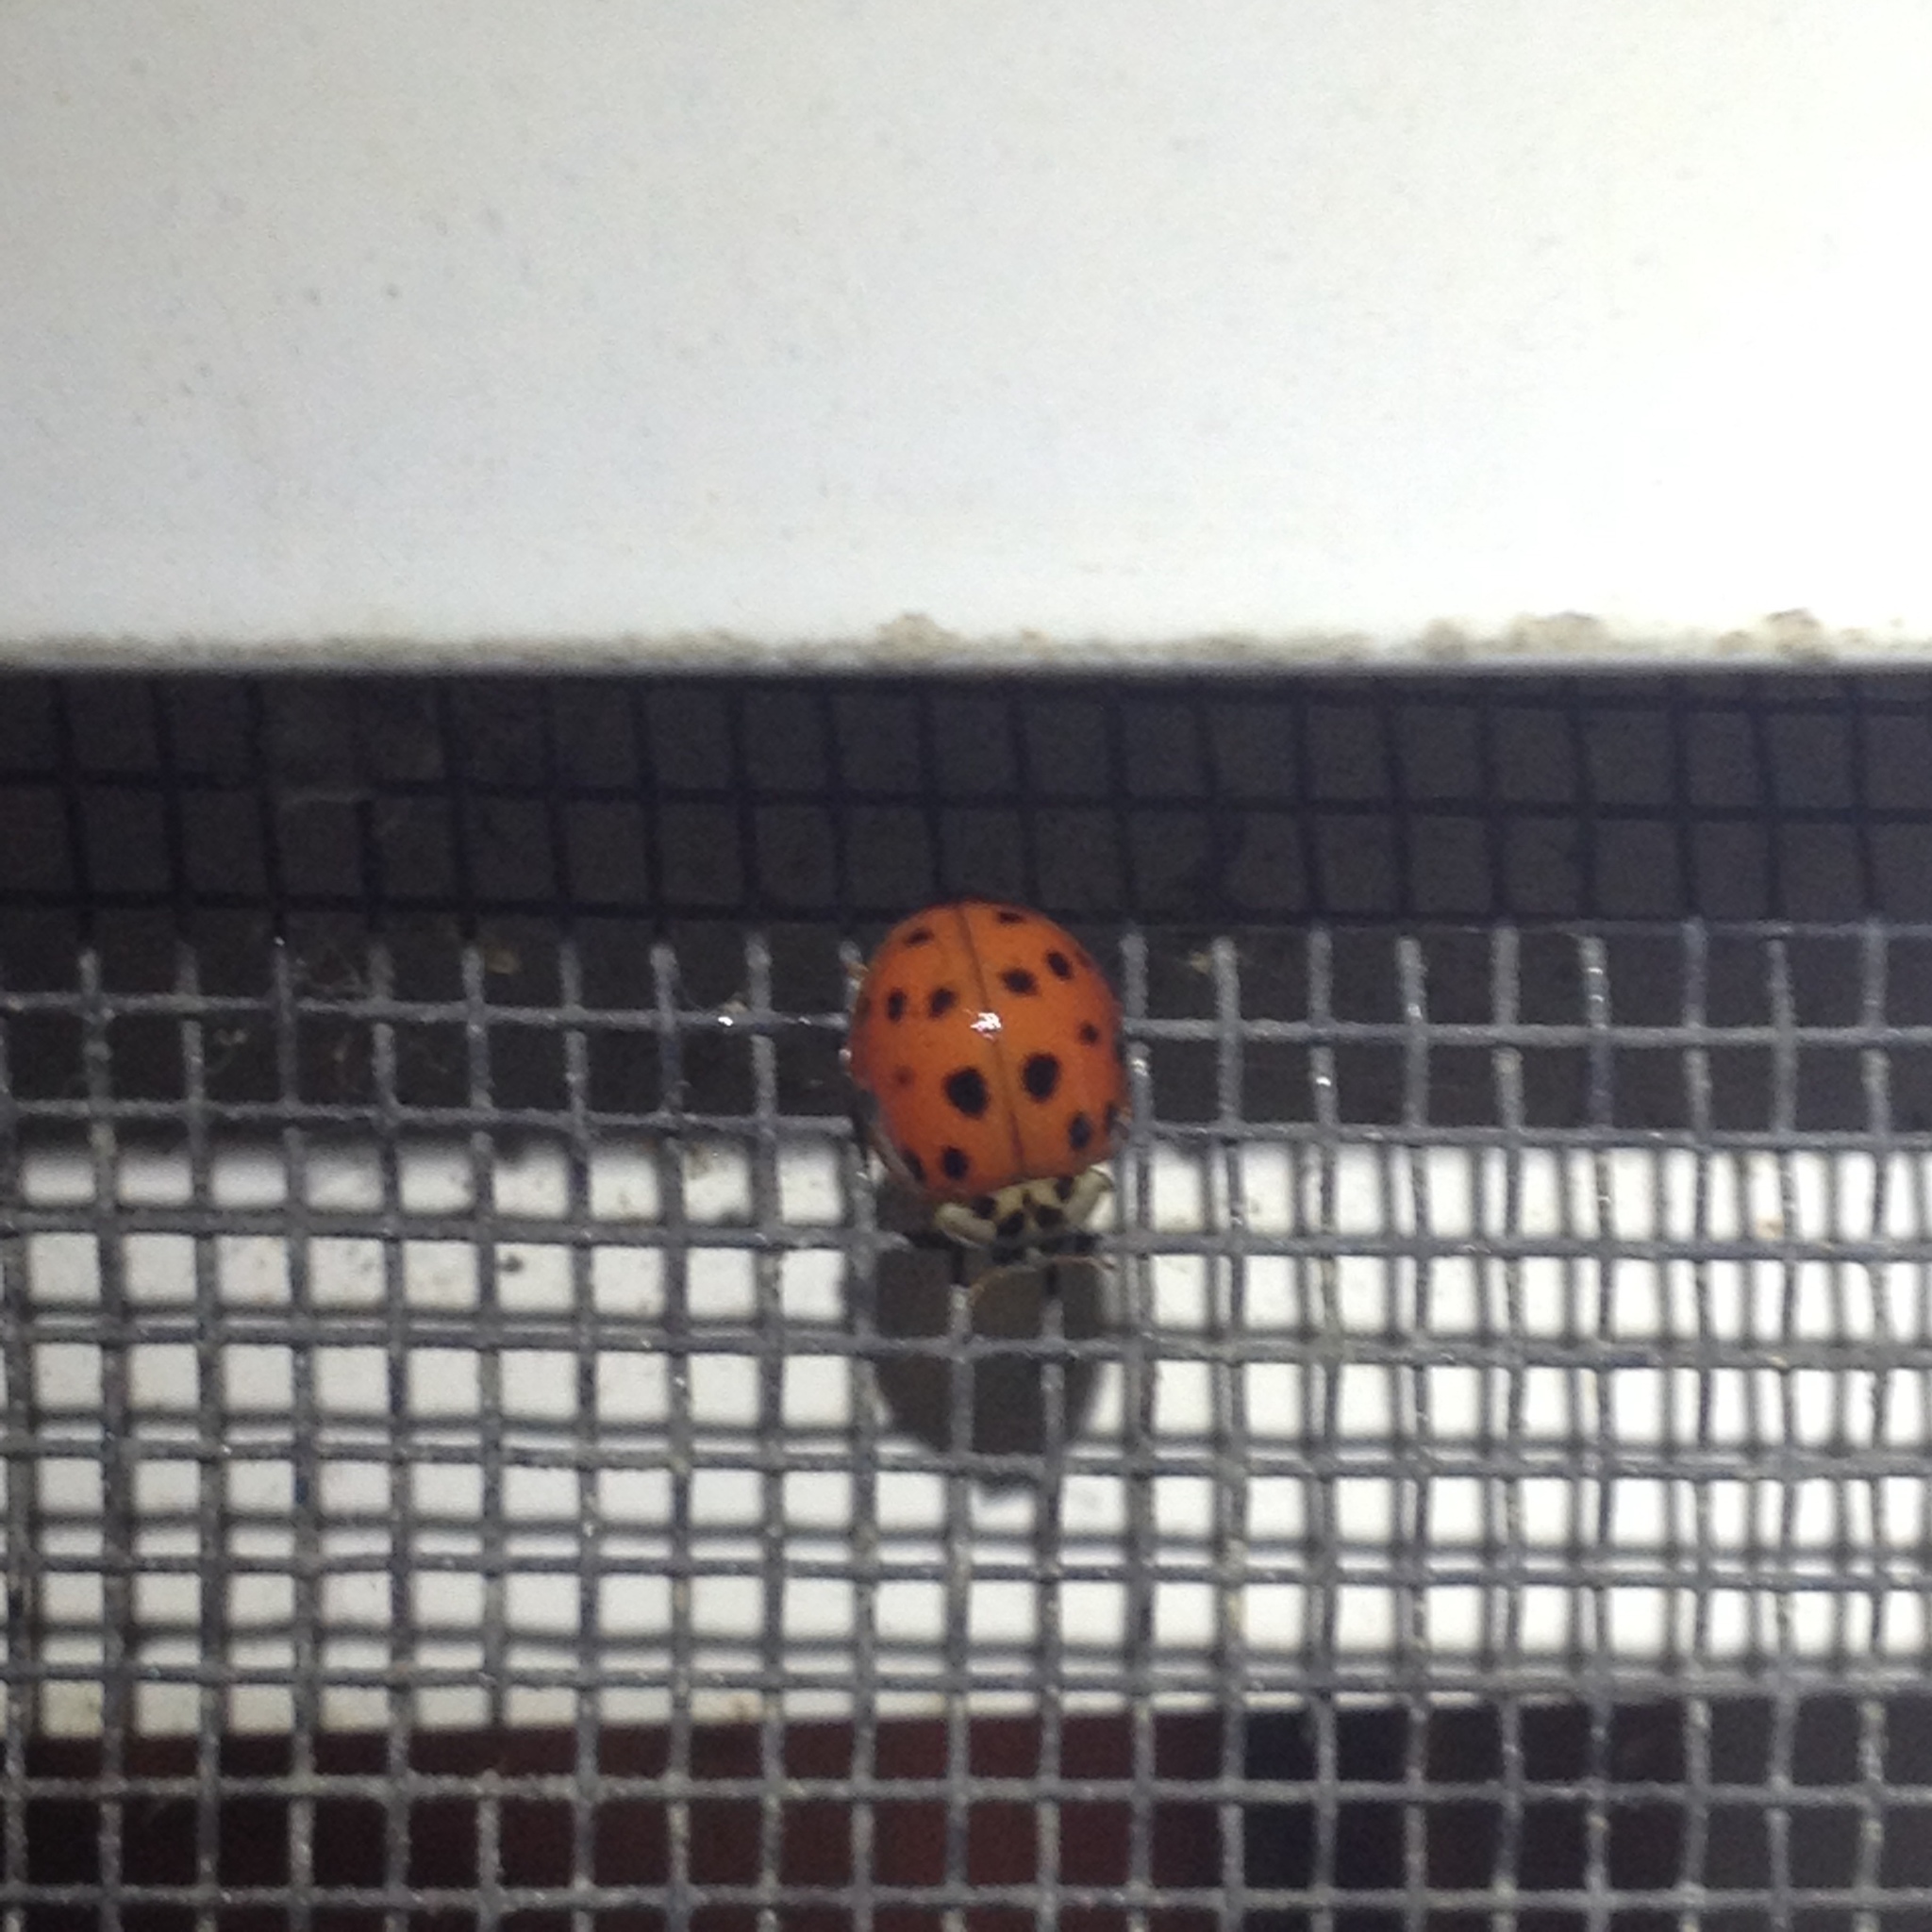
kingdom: Animalia
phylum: Arthropoda
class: Insecta
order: Coleoptera
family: Coccinellidae
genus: Harmonia
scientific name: Harmonia axyridis
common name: Harlequin ladybird
